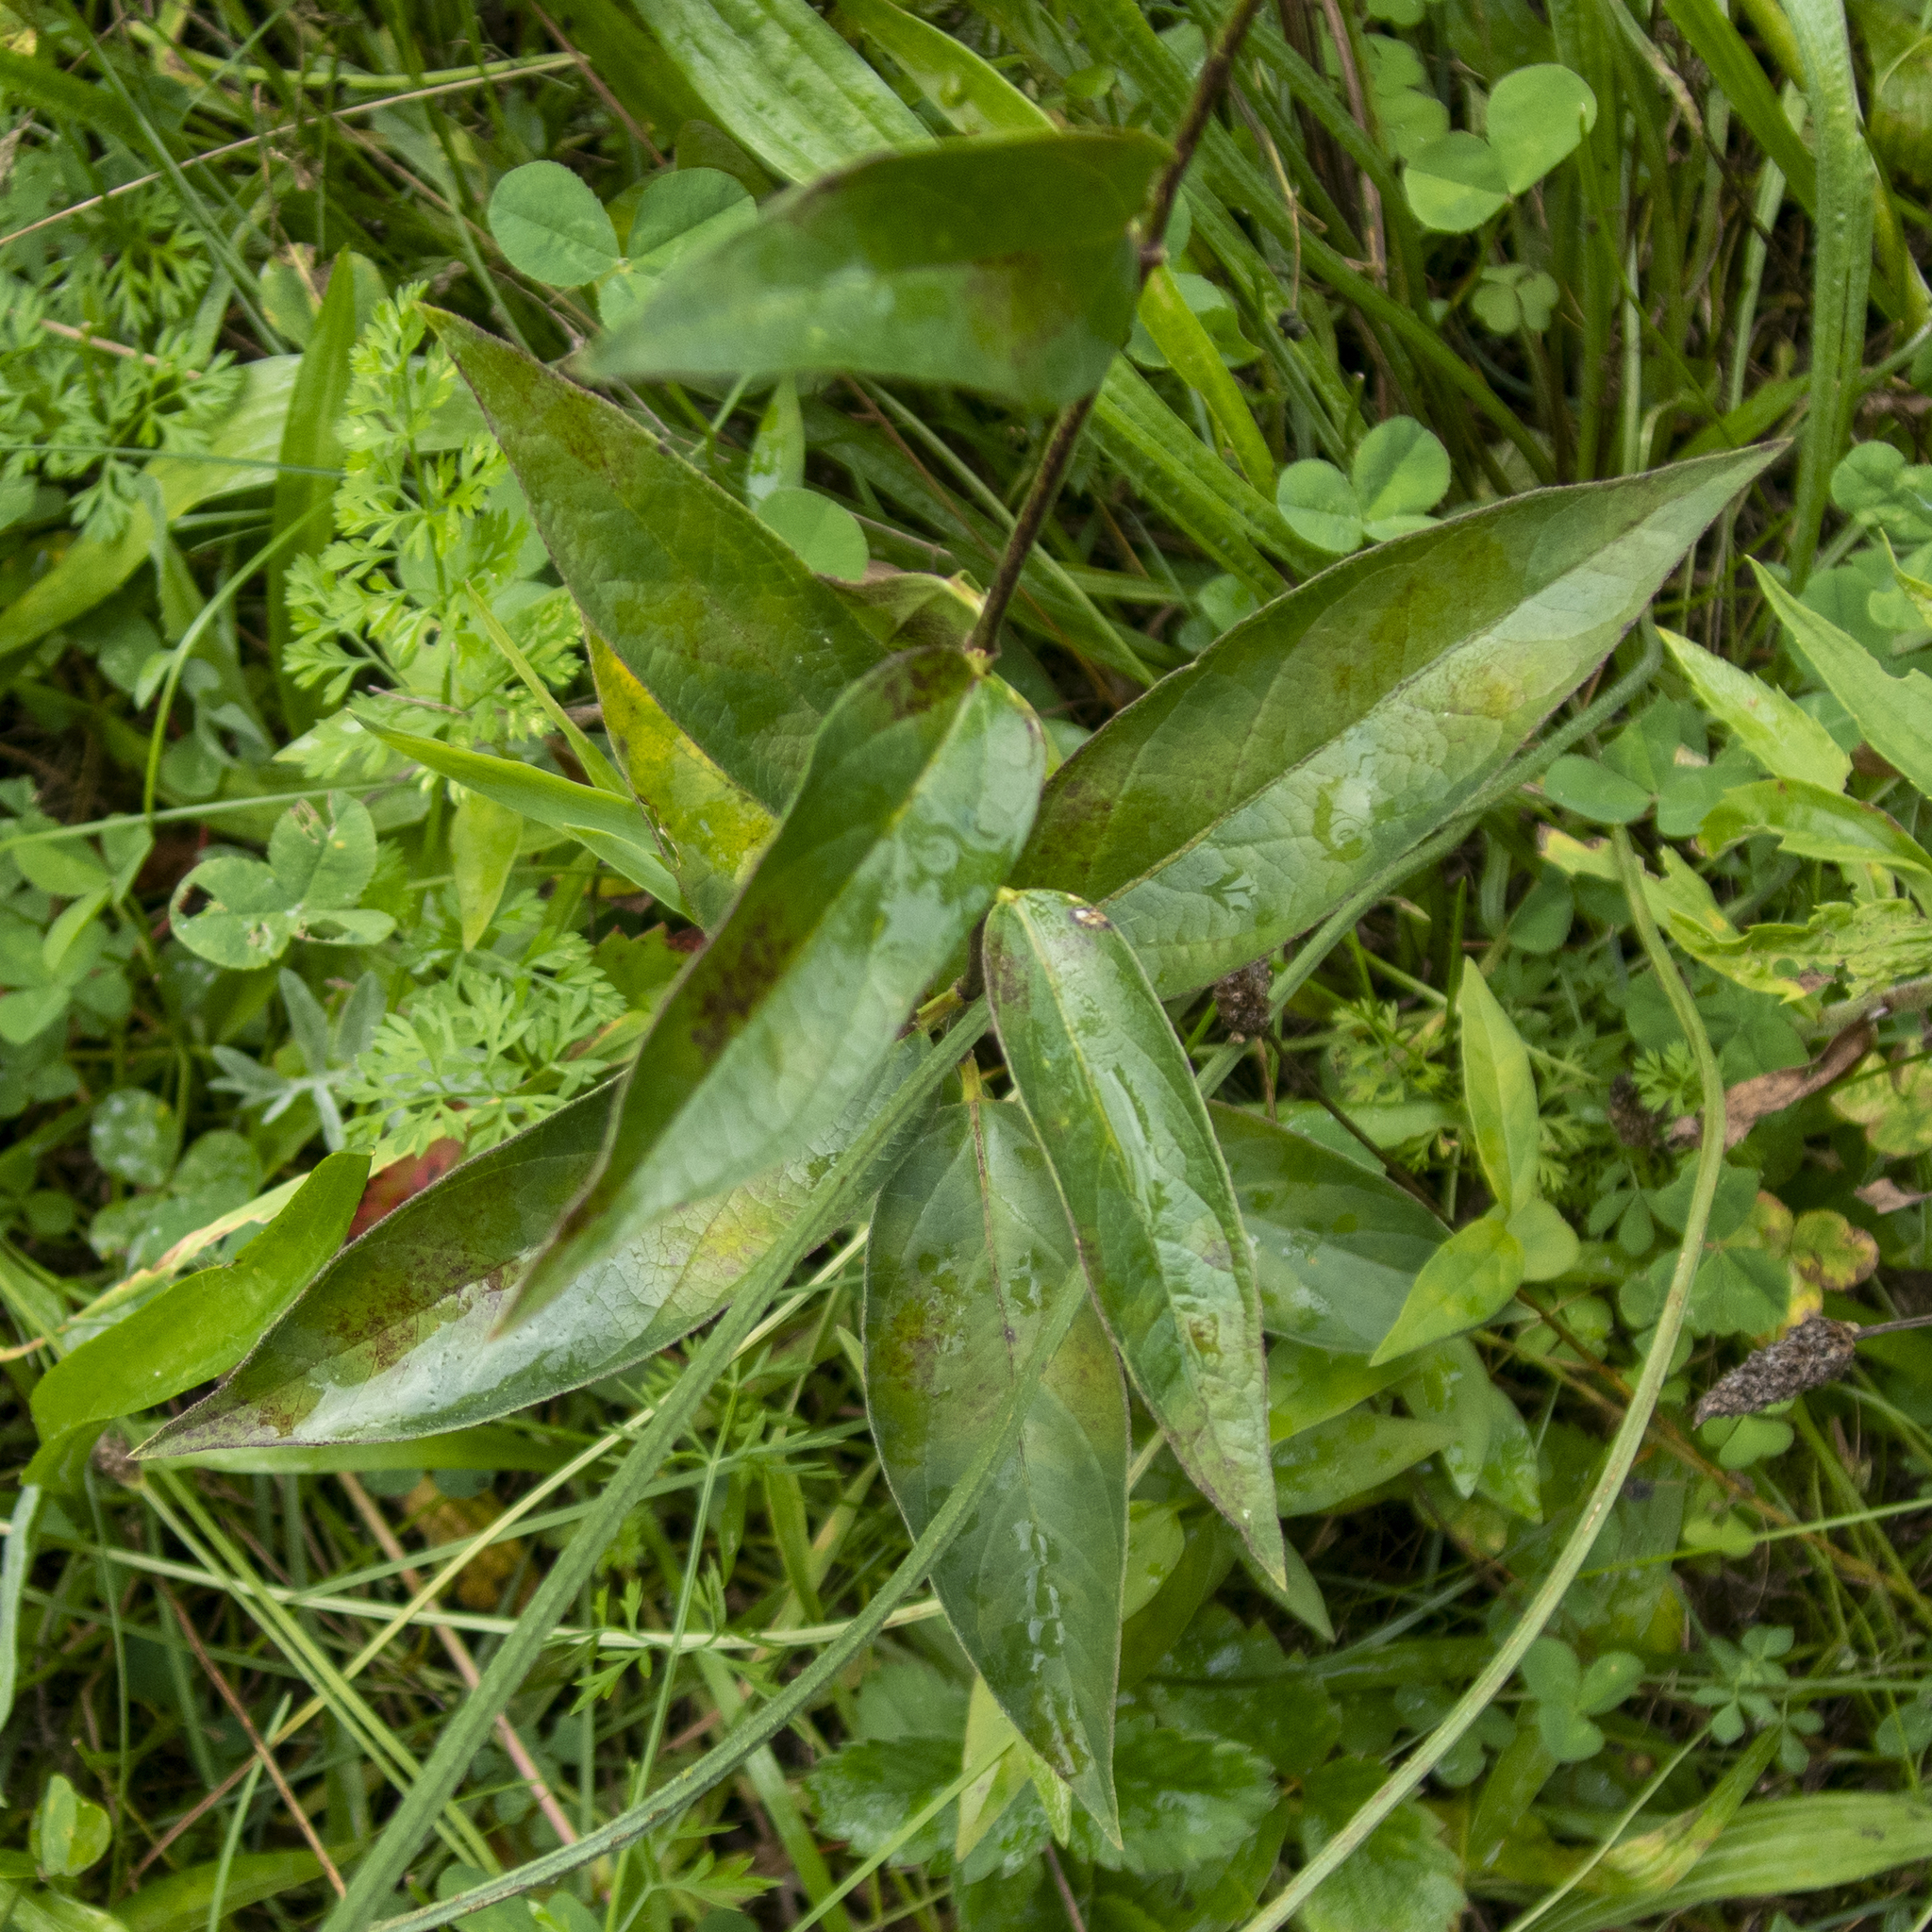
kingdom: Plantae
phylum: Tracheophyta
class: Magnoliopsida
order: Gentianales
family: Apocynaceae
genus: Vincetoxicum
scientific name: Vincetoxicum rossicum
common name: Dog-strangling vine
